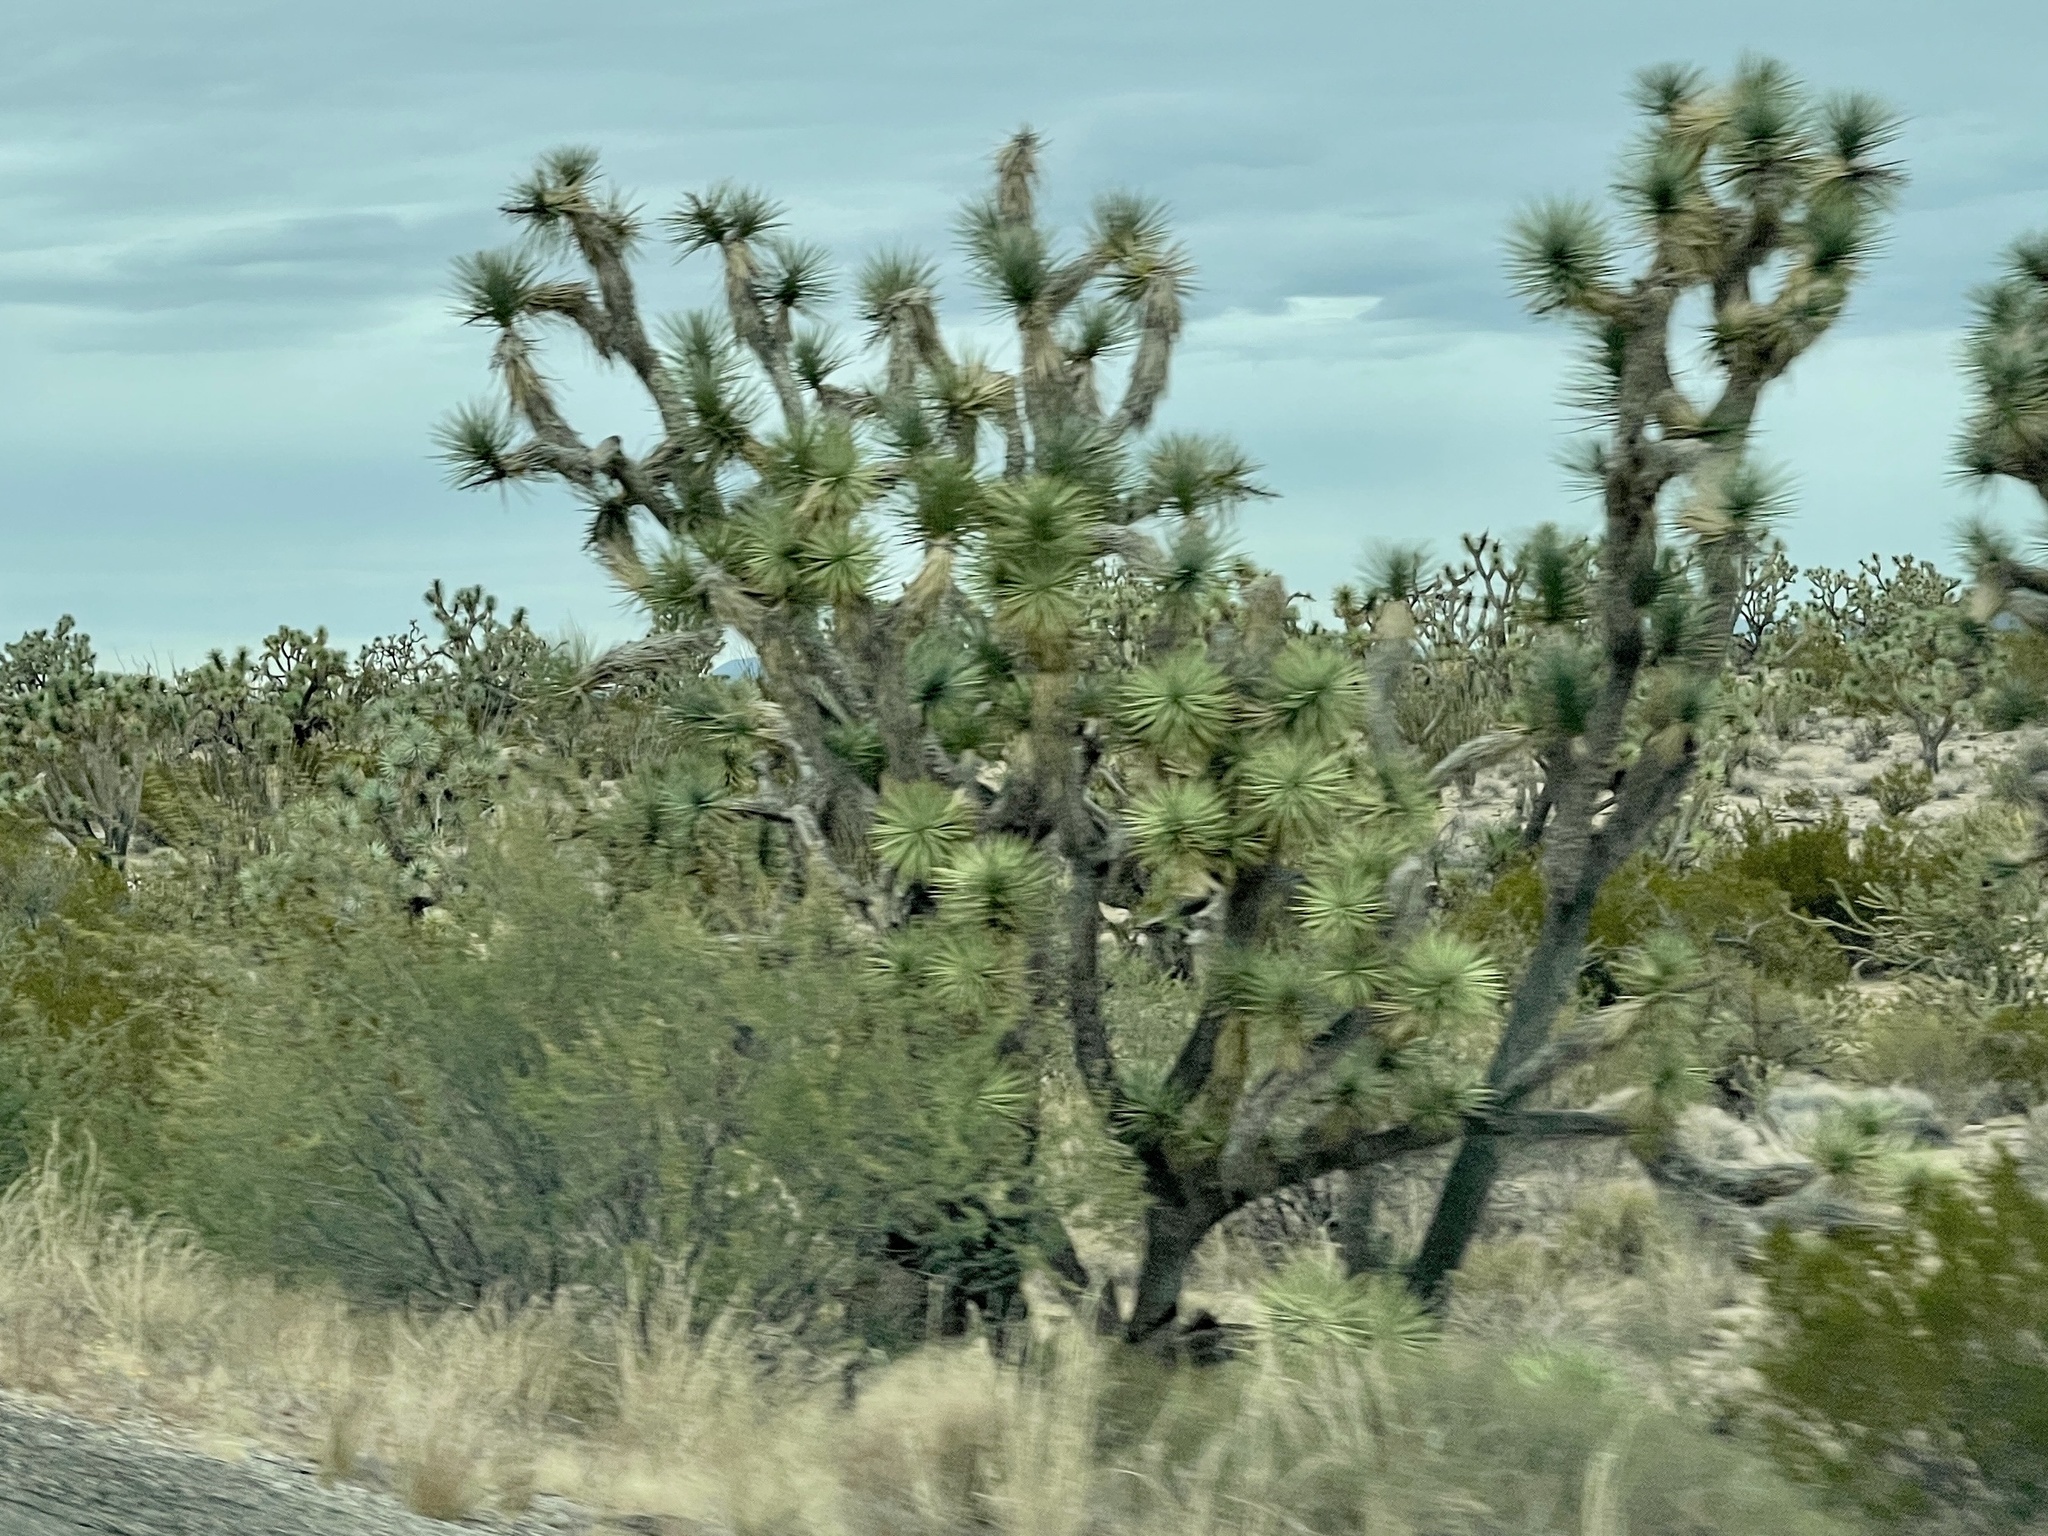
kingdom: Plantae
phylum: Tracheophyta
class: Liliopsida
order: Asparagales
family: Asparagaceae
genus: Yucca
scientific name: Yucca brevifolia
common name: Joshua tree
